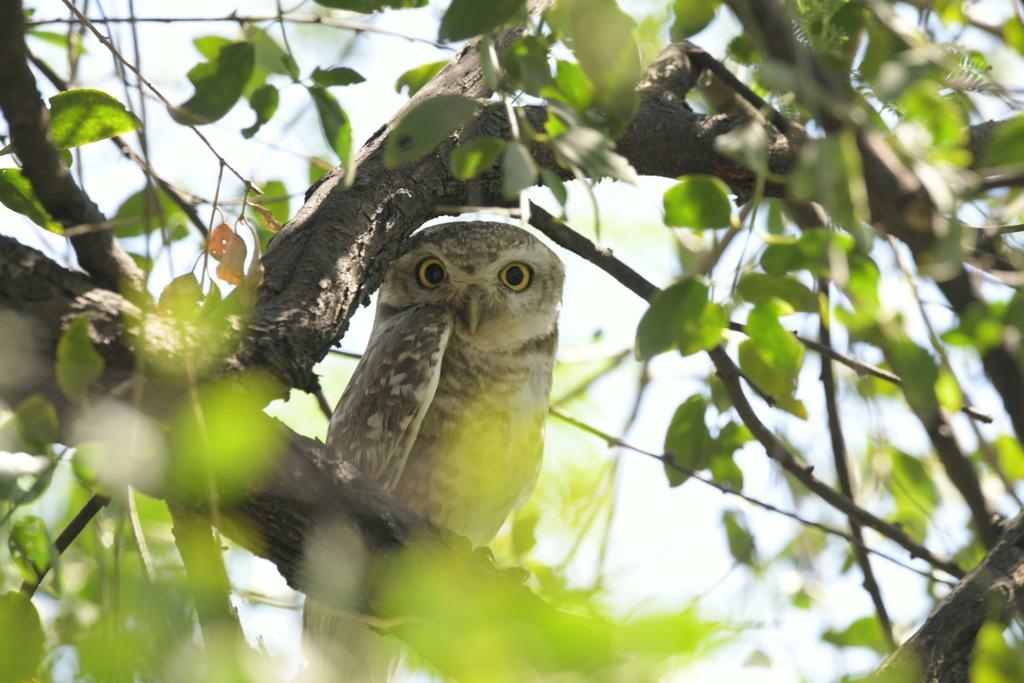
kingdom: Animalia
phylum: Chordata
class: Aves
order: Strigiformes
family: Strigidae
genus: Athene
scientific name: Athene brama
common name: Spotted owlet
